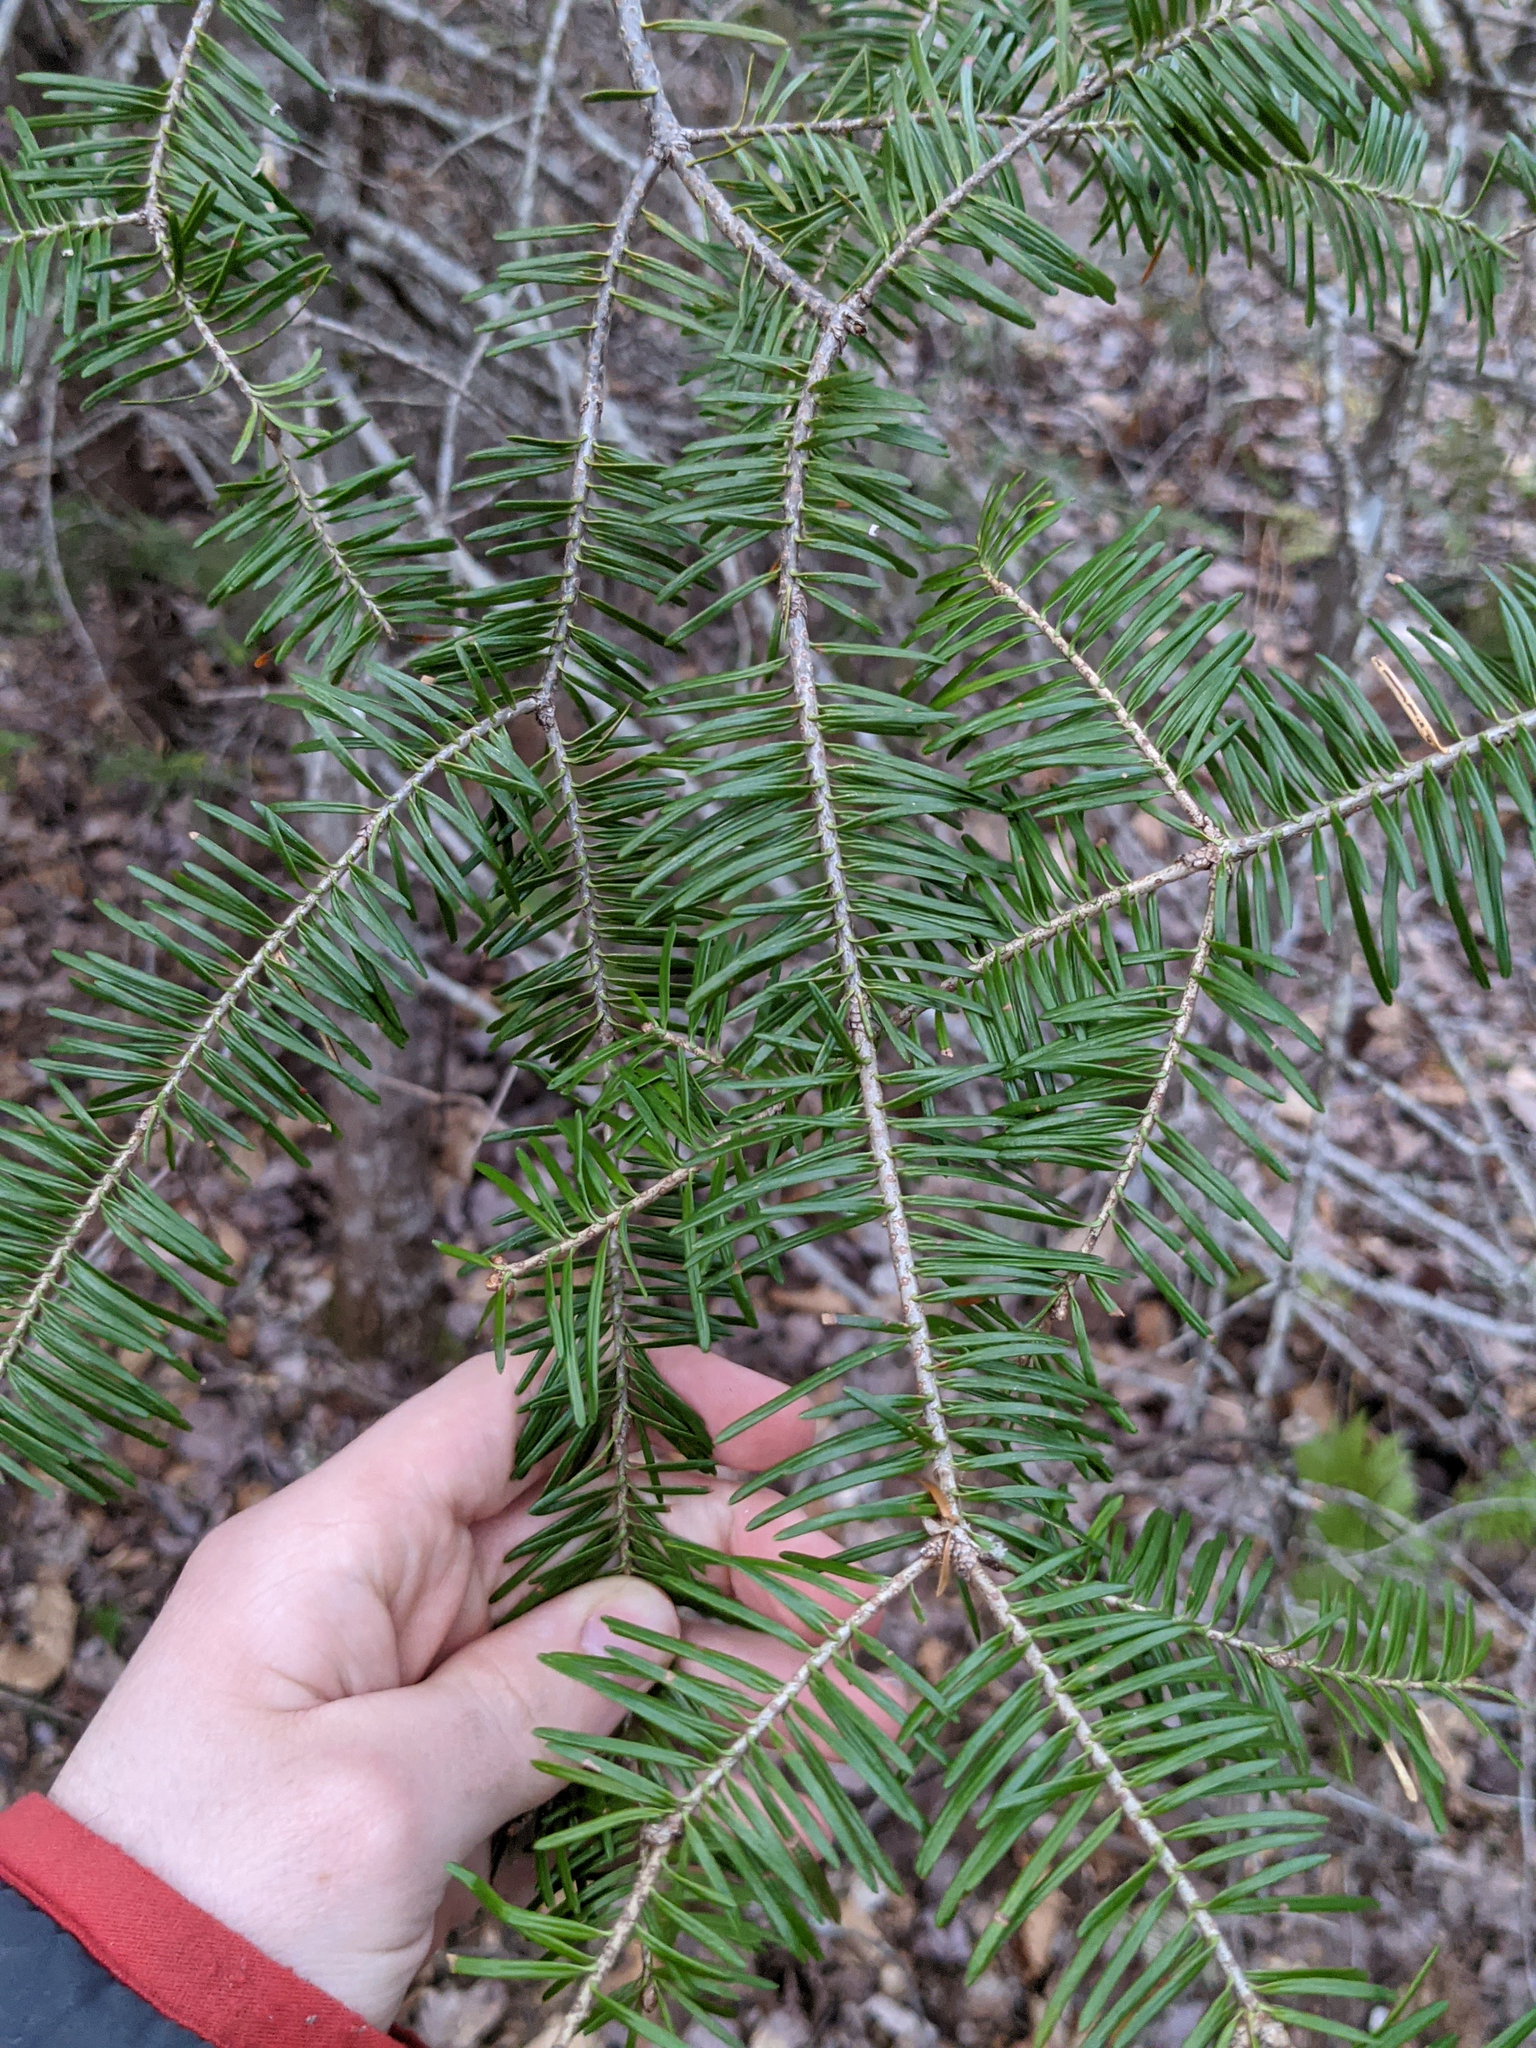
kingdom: Plantae
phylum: Tracheophyta
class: Pinopsida
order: Pinales
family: Pinaceae
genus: Abies
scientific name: Abies balsamea
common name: Balsam fir
